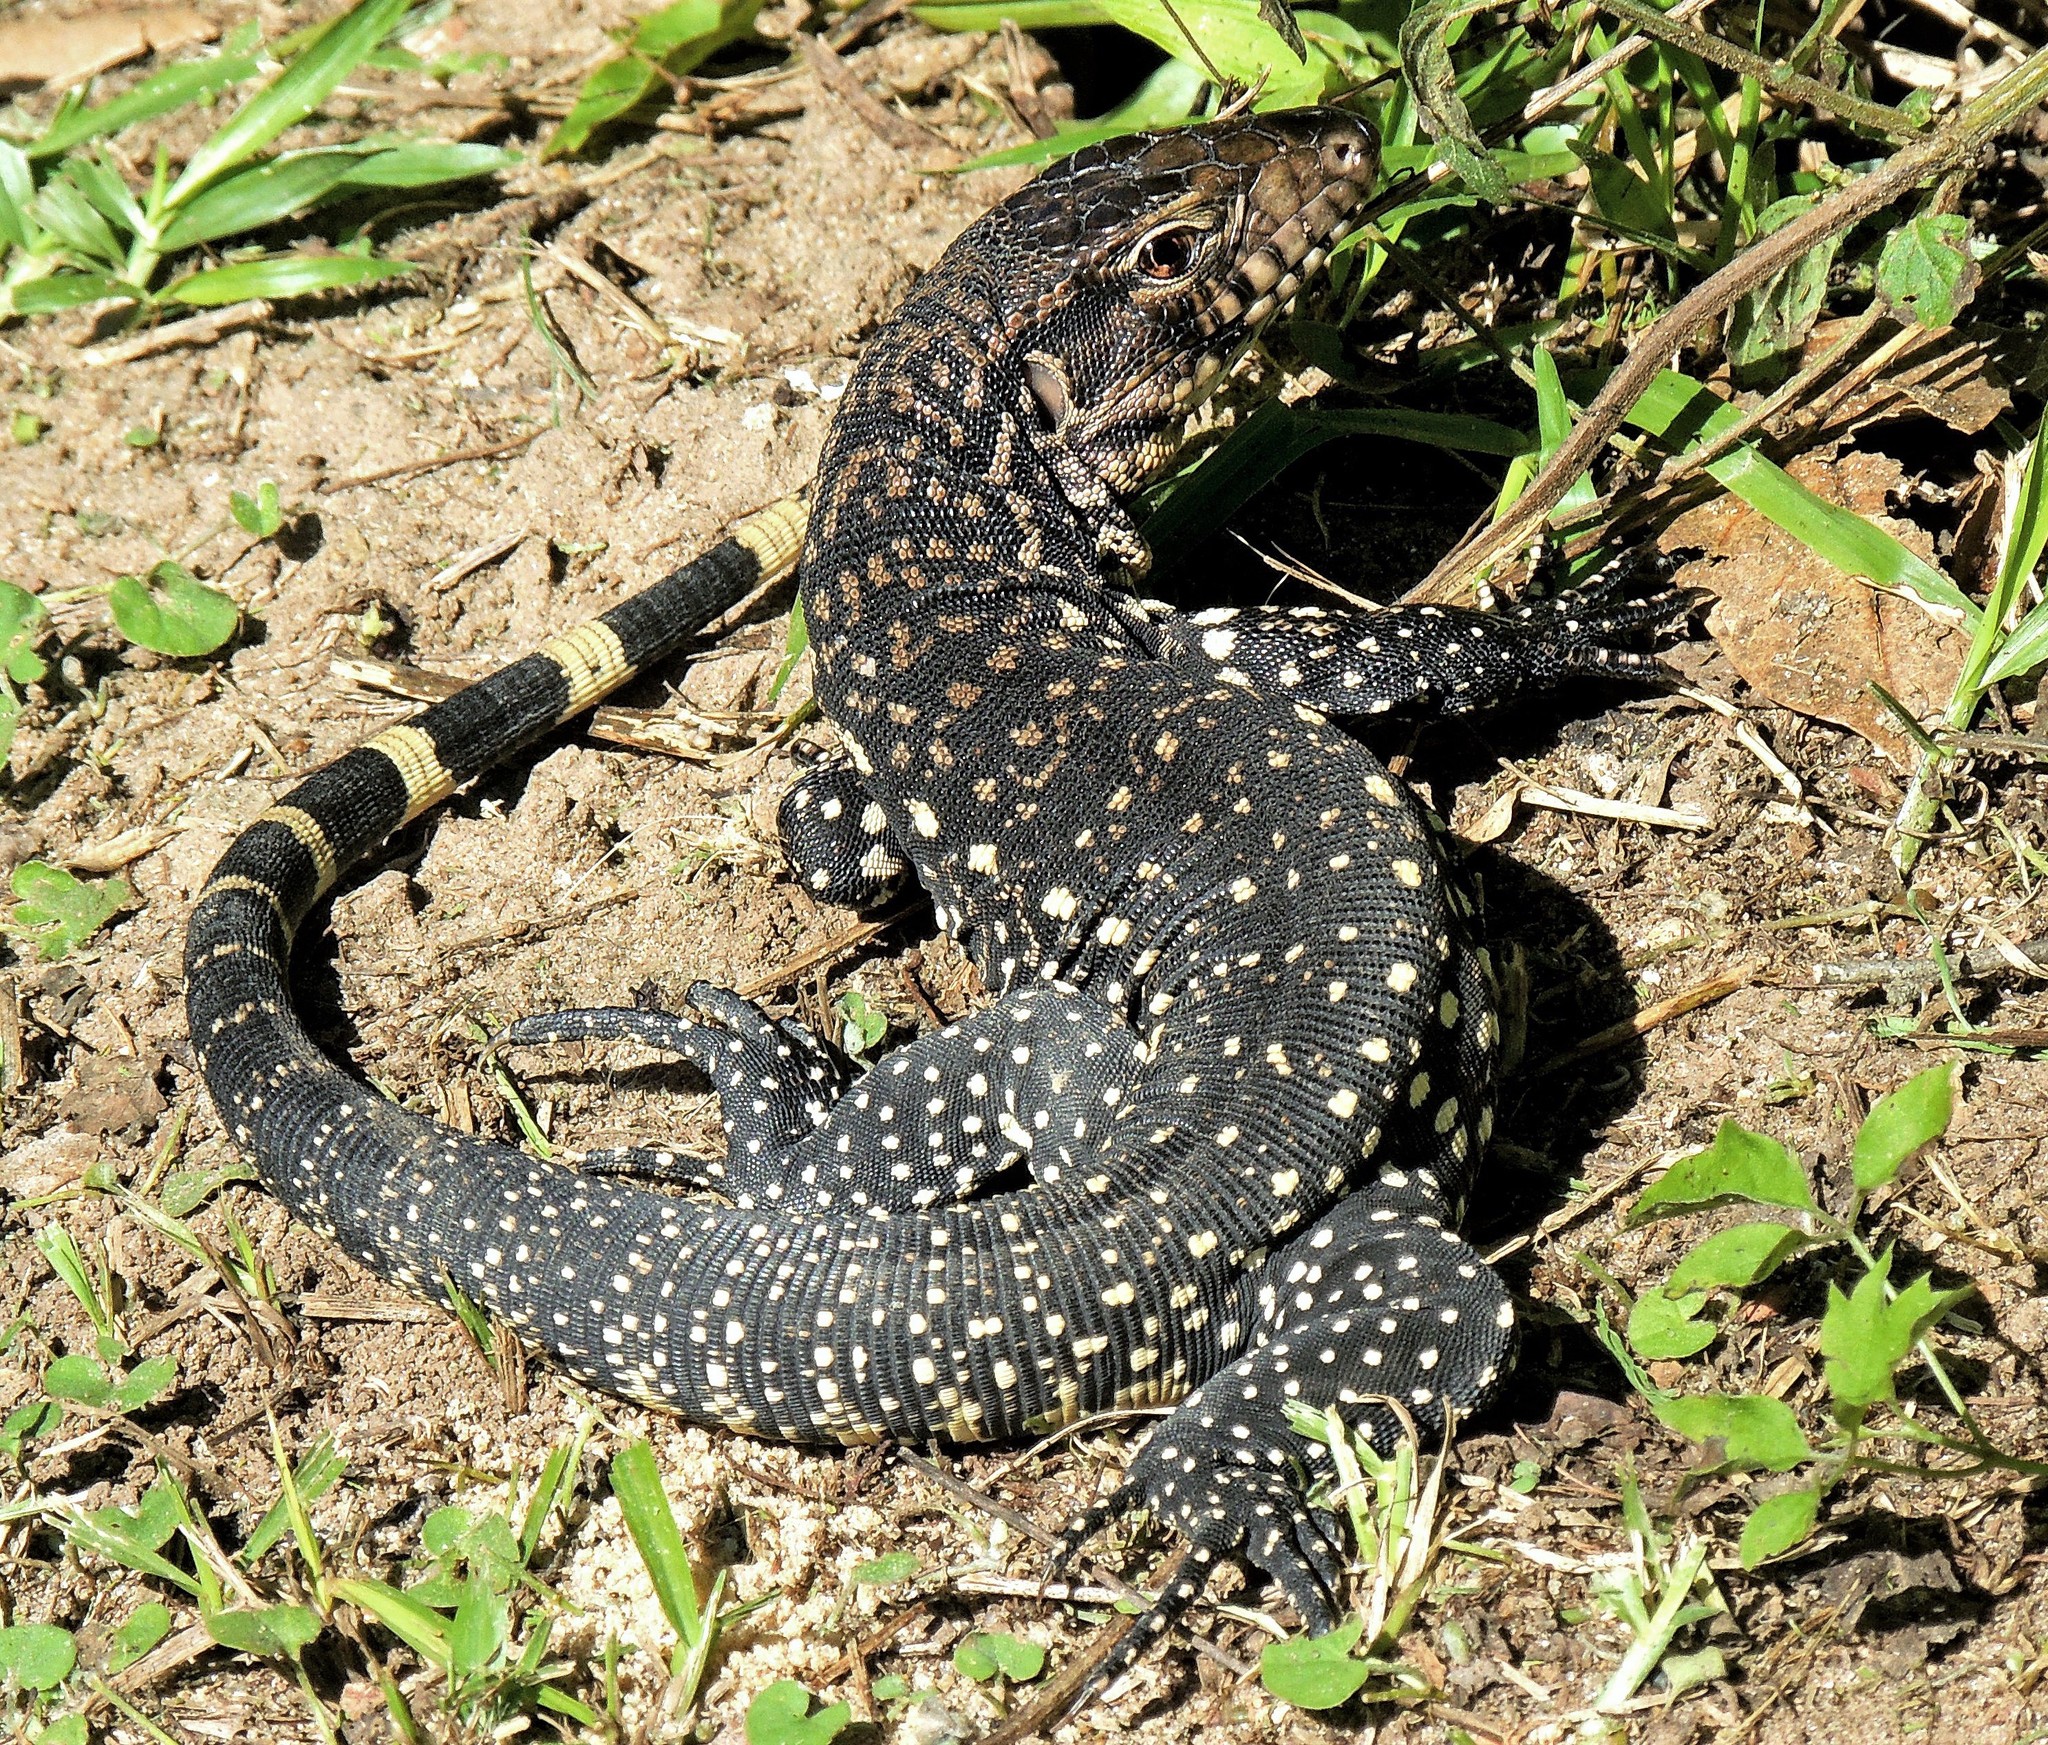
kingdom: Animalia
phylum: Chordata
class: Squamata
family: Teiidae
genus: Salvator
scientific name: Salvator merianae
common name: Argentine black and white tegu
